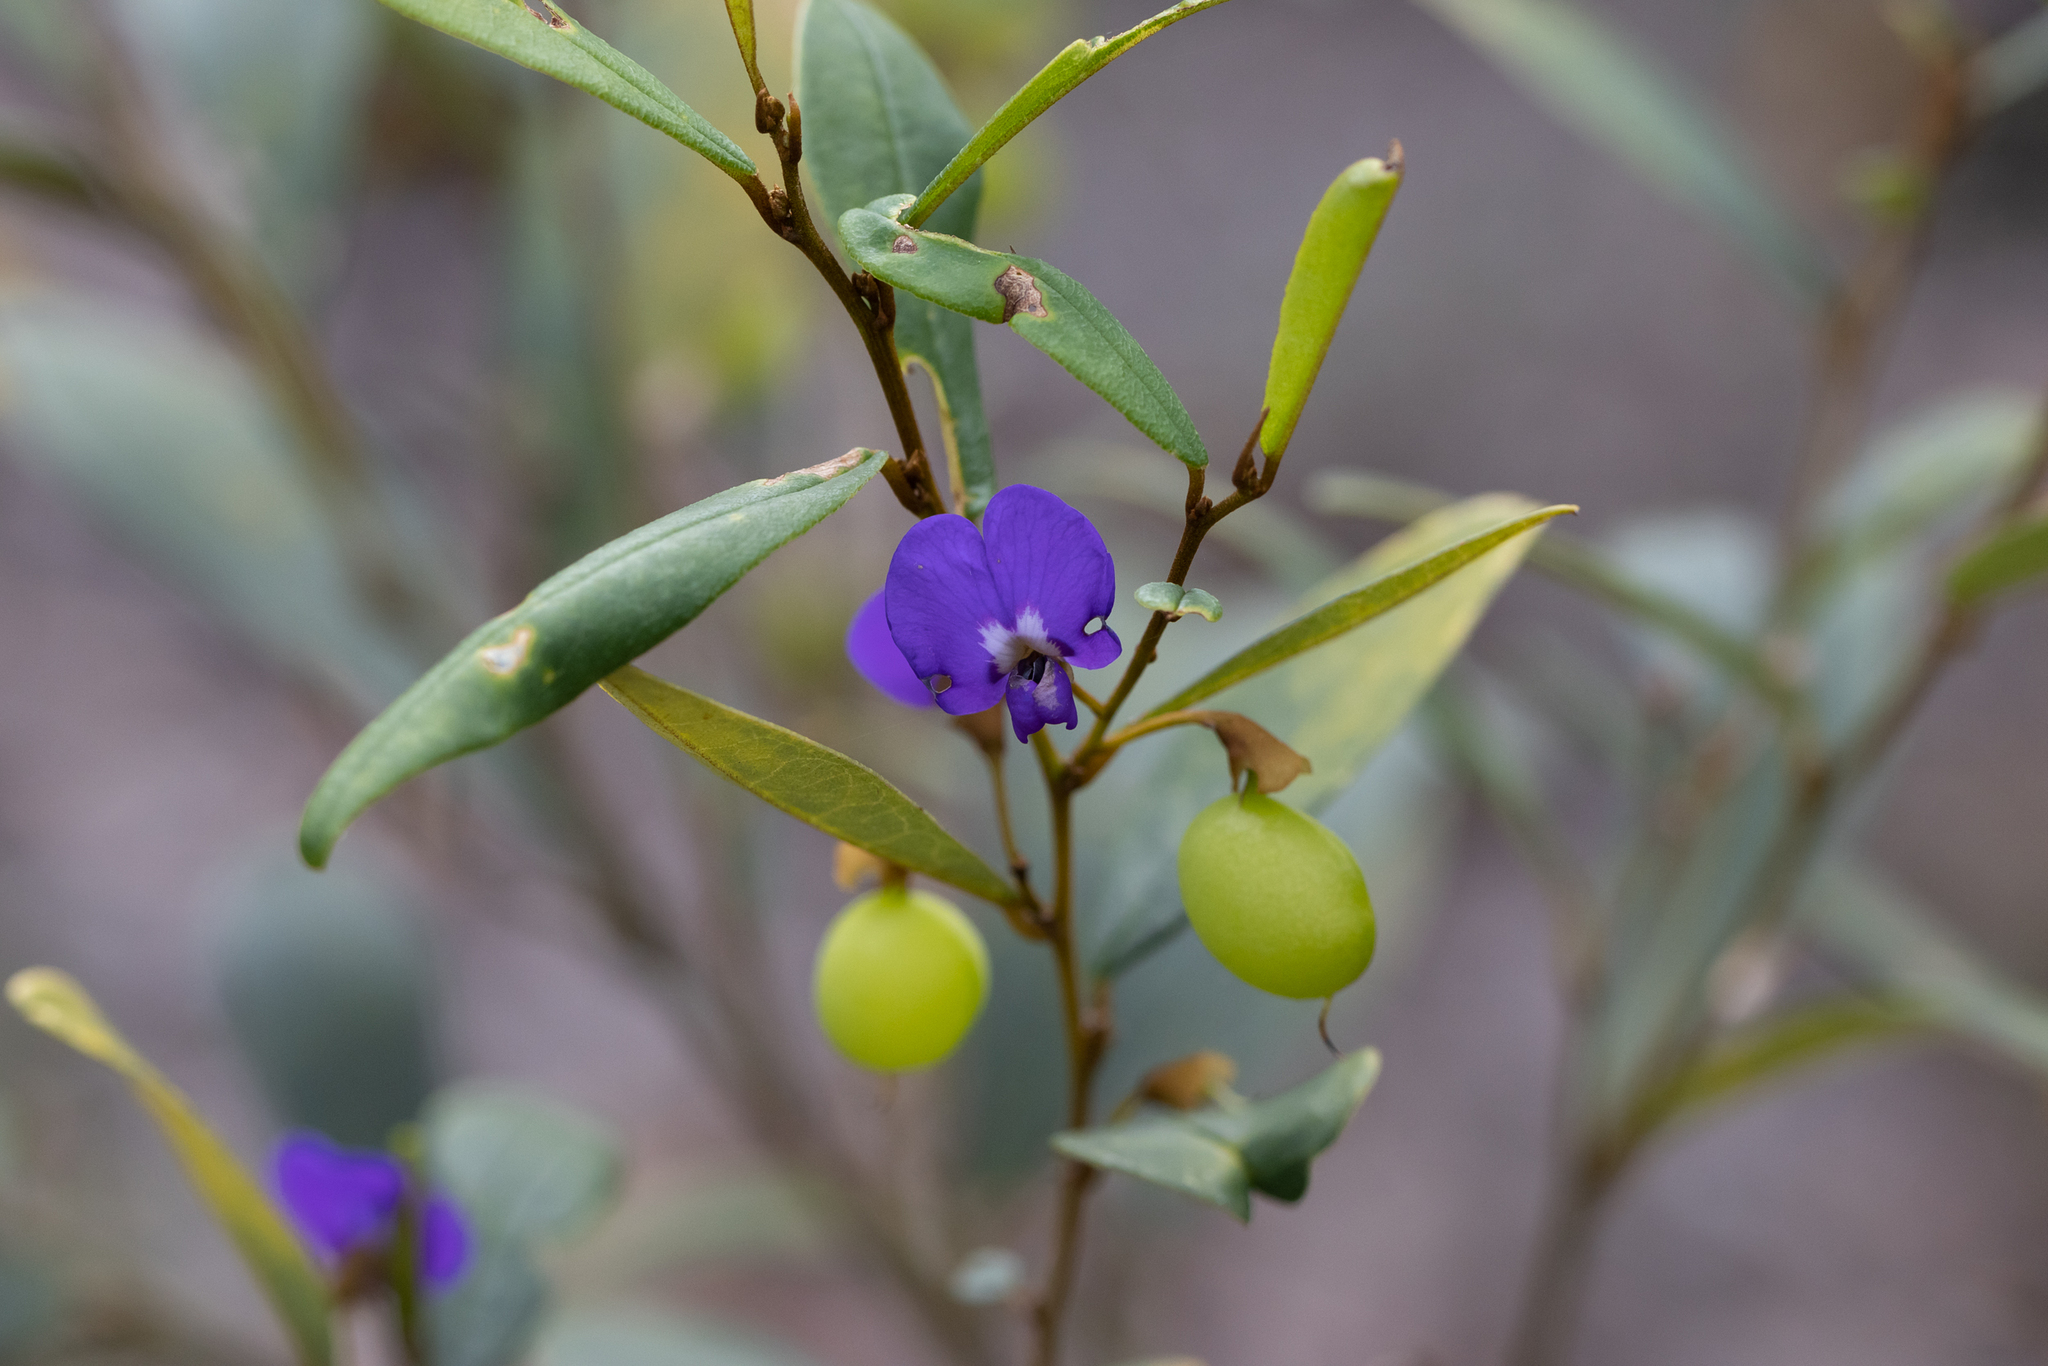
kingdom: Plantae
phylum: Tracheophyta
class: Magnoliopsida
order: Fabales
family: Fabaceae
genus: Hovea
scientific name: Hovea elliptica
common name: Tree hovea
